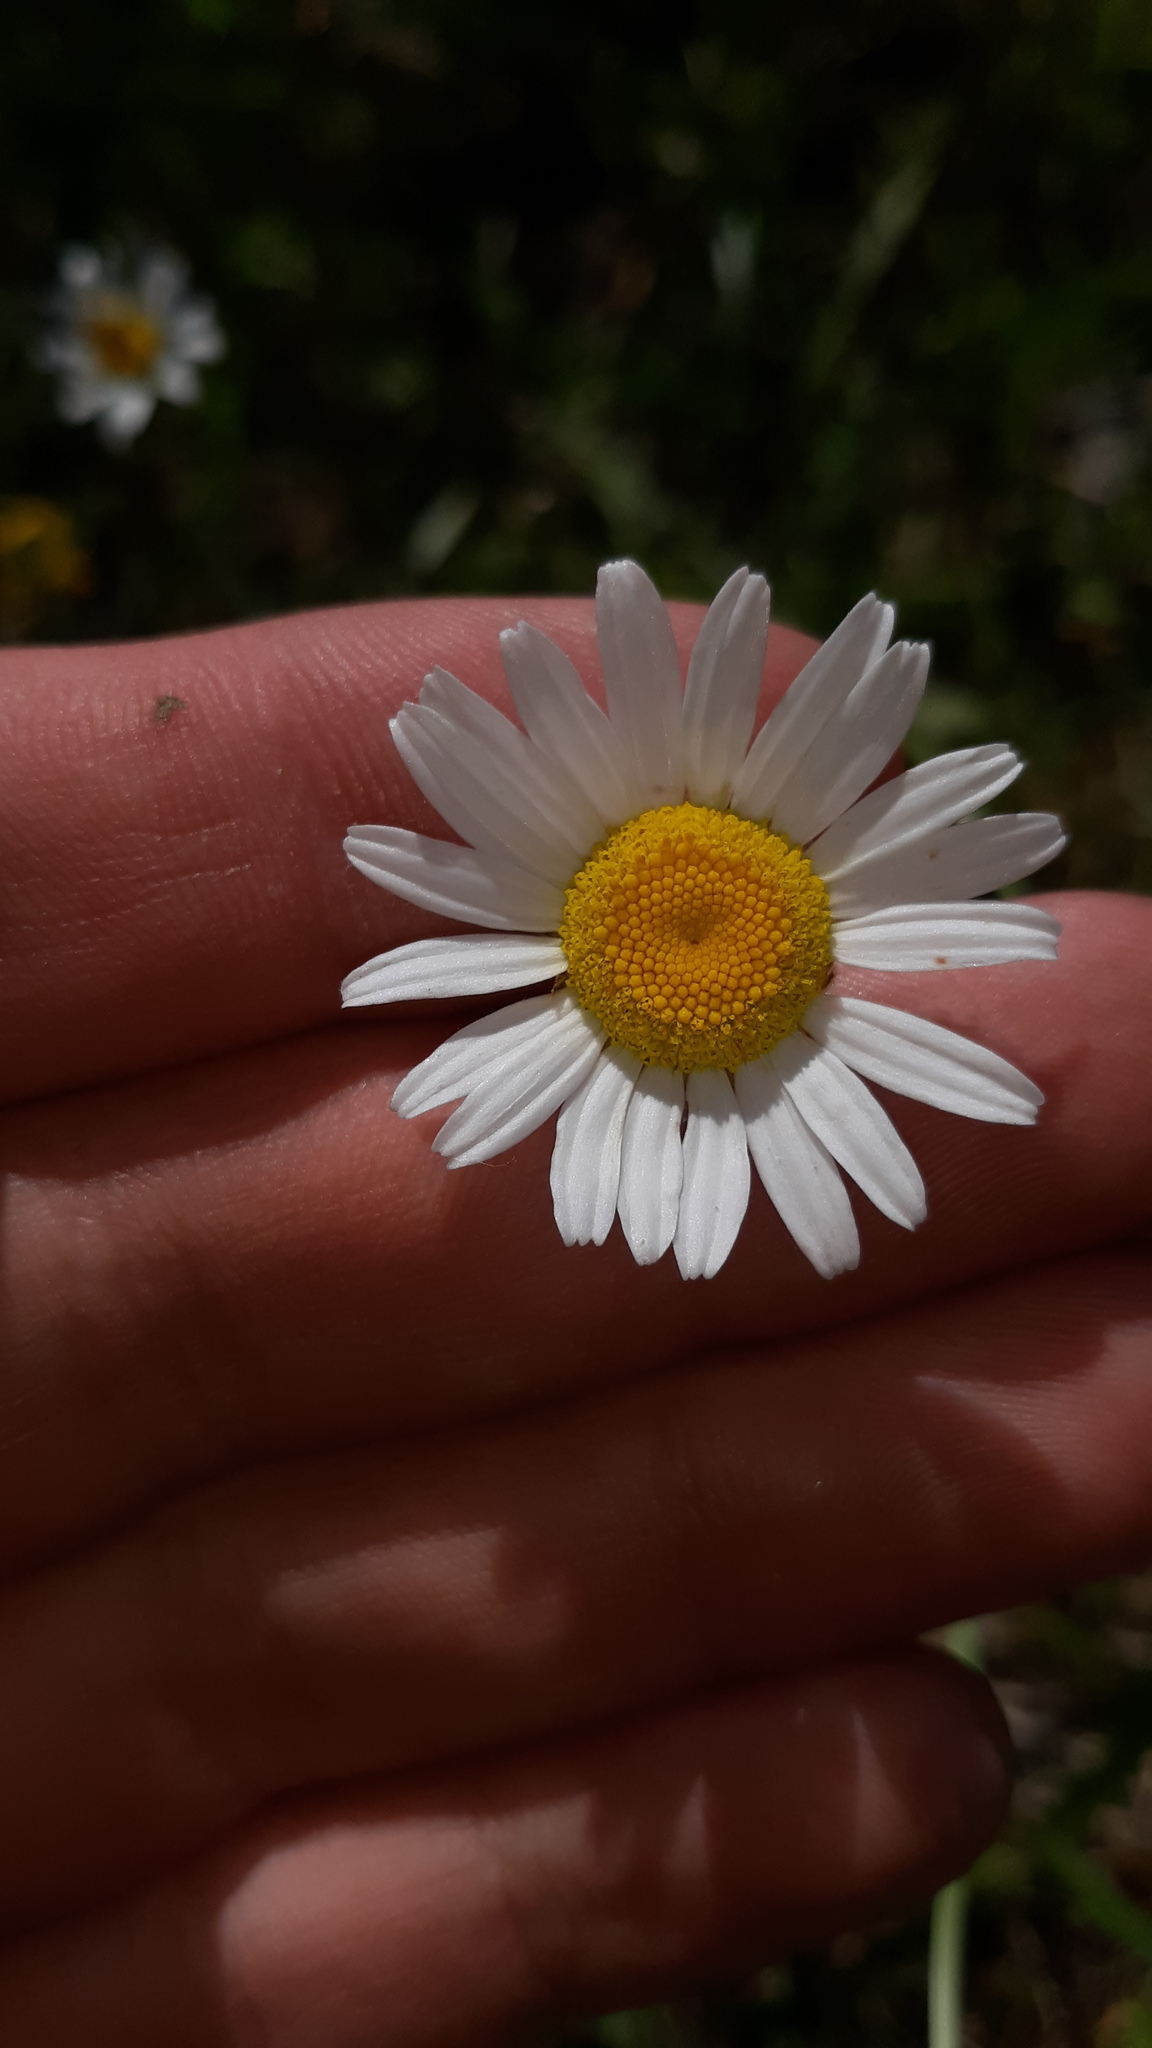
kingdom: Plantae
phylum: Tracheophyta
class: Magnoliopsida
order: Asterales
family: Asteraceae
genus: Leucanthemum
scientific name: Leucanthemum vulgare
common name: Oxeye daisy
